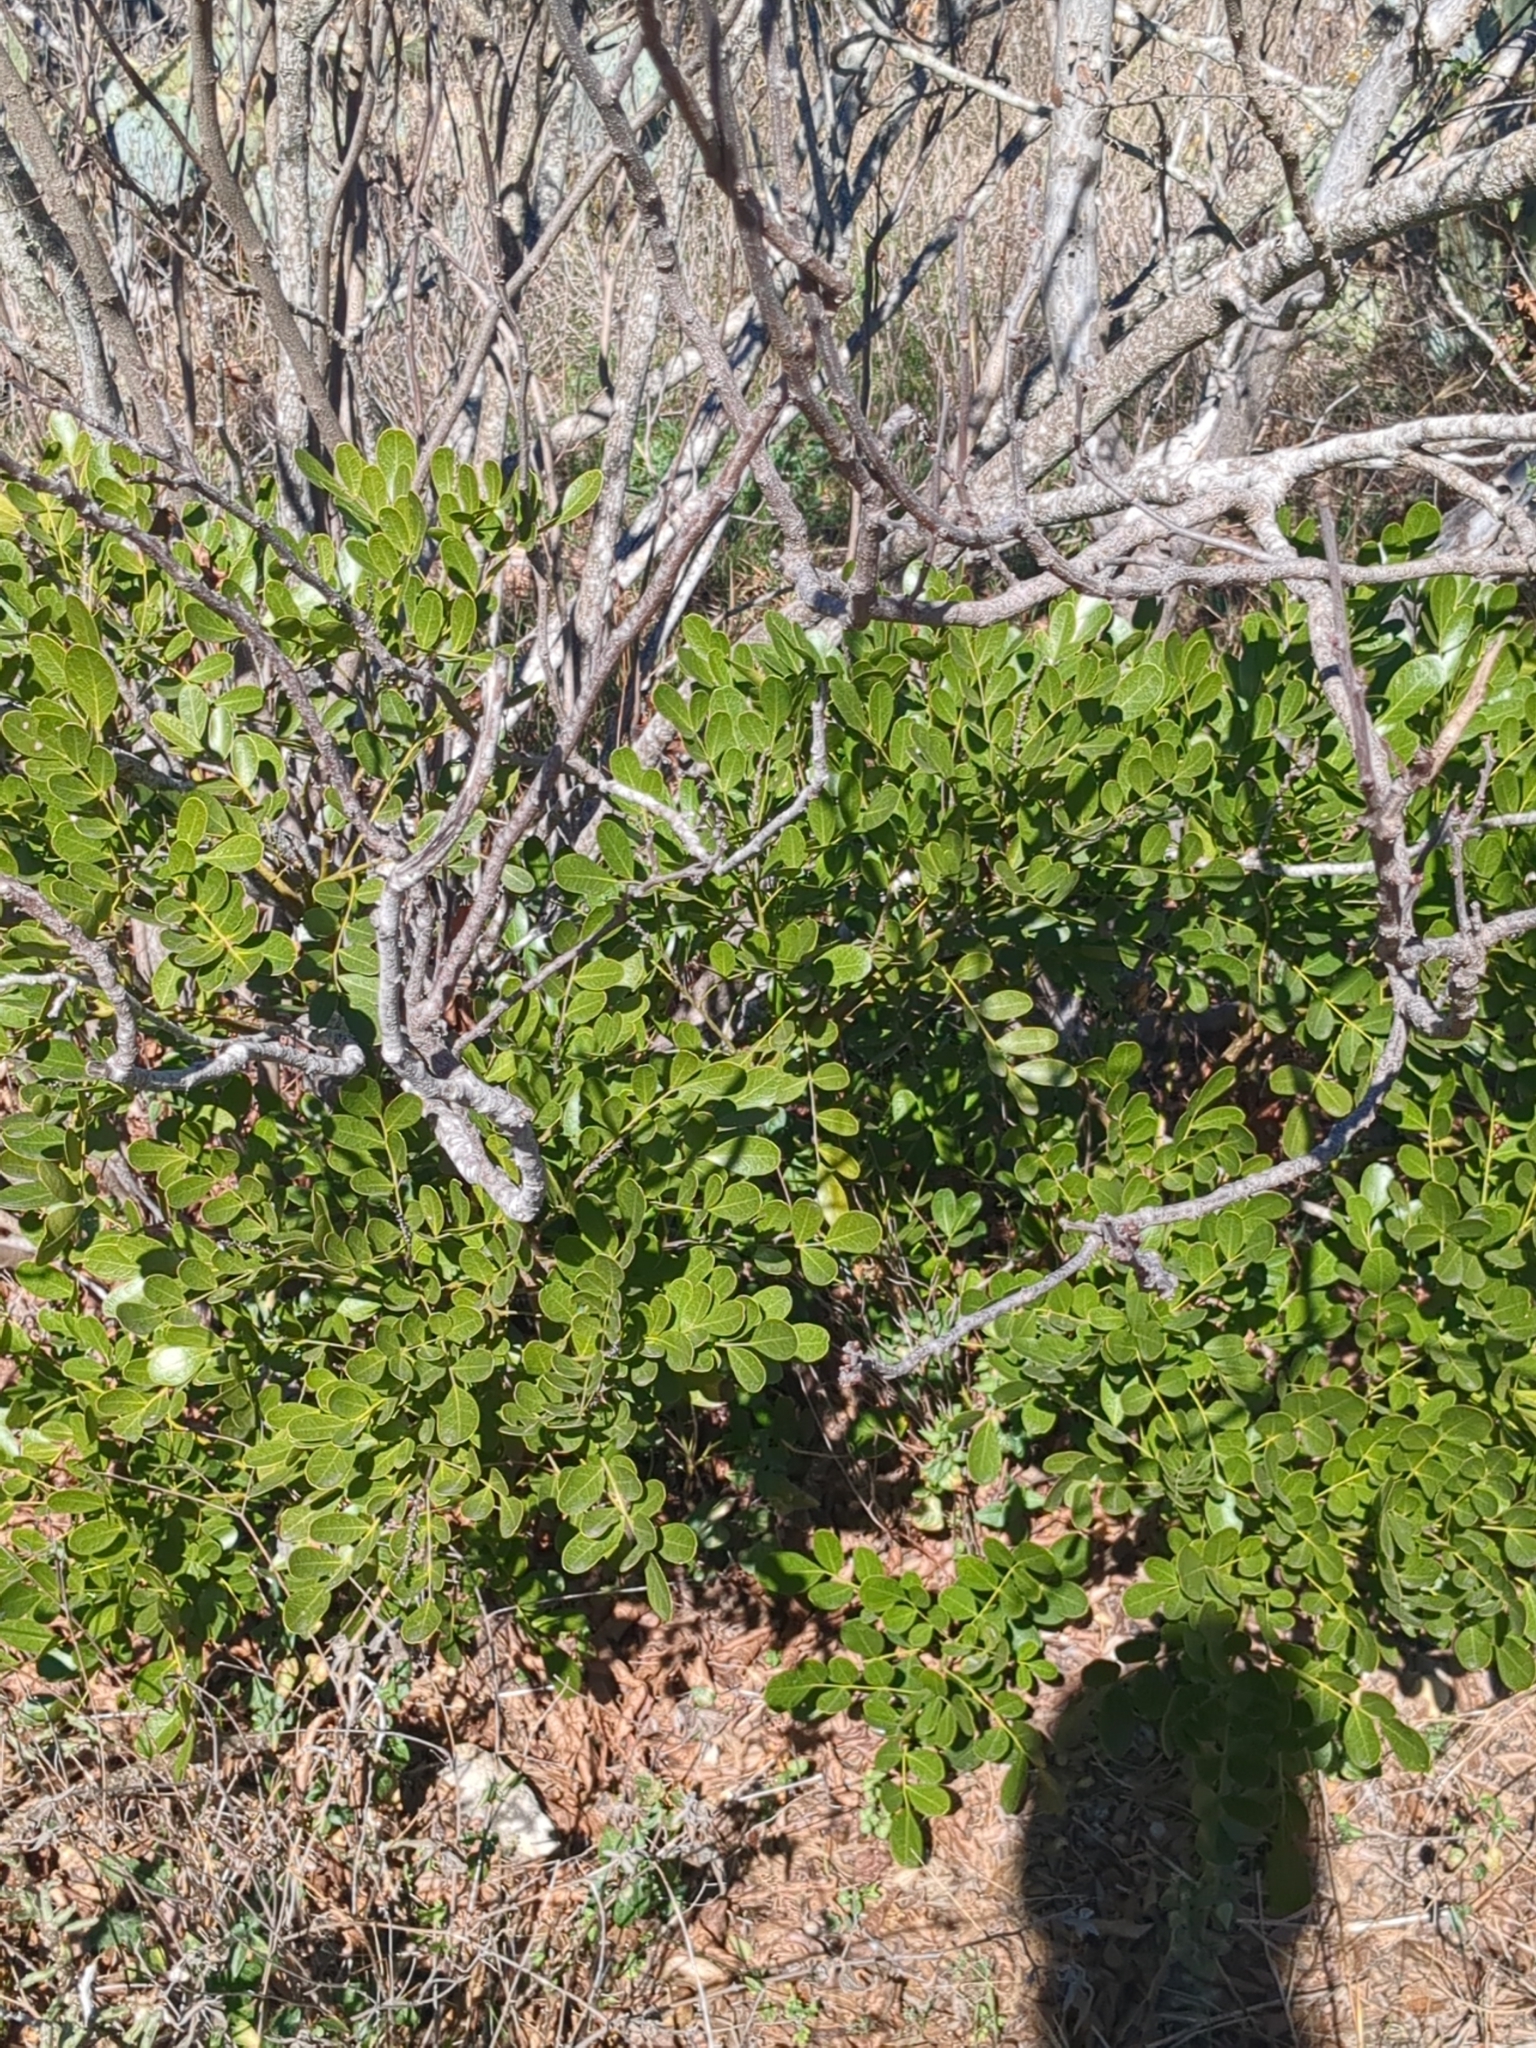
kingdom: Plantae
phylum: Tracheophyta
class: Magnoliopsida
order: Fabales
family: Fabaceae
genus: Dermatophyllum
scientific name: Dermatophyllum secundiflorum
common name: Texas-mountain-laurel
